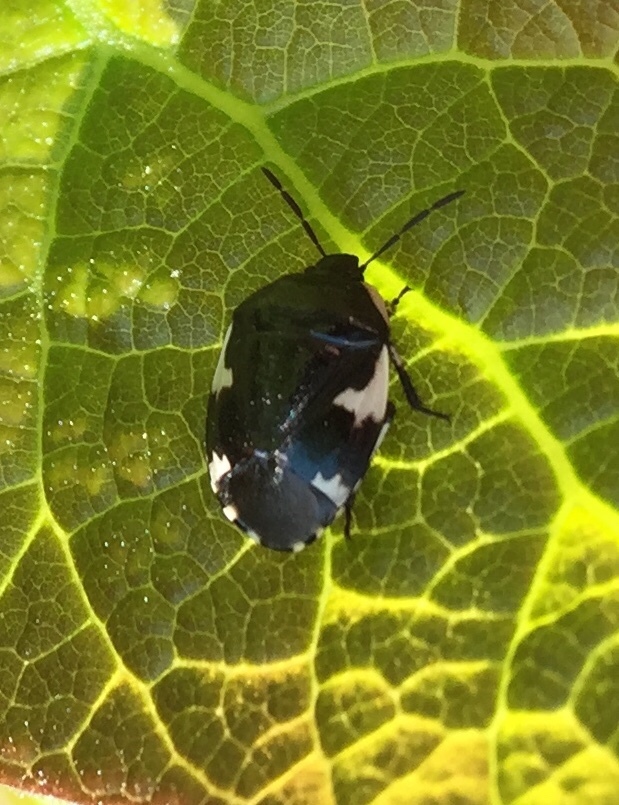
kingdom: Animalia
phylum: Arthropoda
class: Insecta
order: Hemiptera
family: Cydnidae
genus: Tritomegas
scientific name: Tritomegas sexmaculatus
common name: Rambur's pied shieldbug
